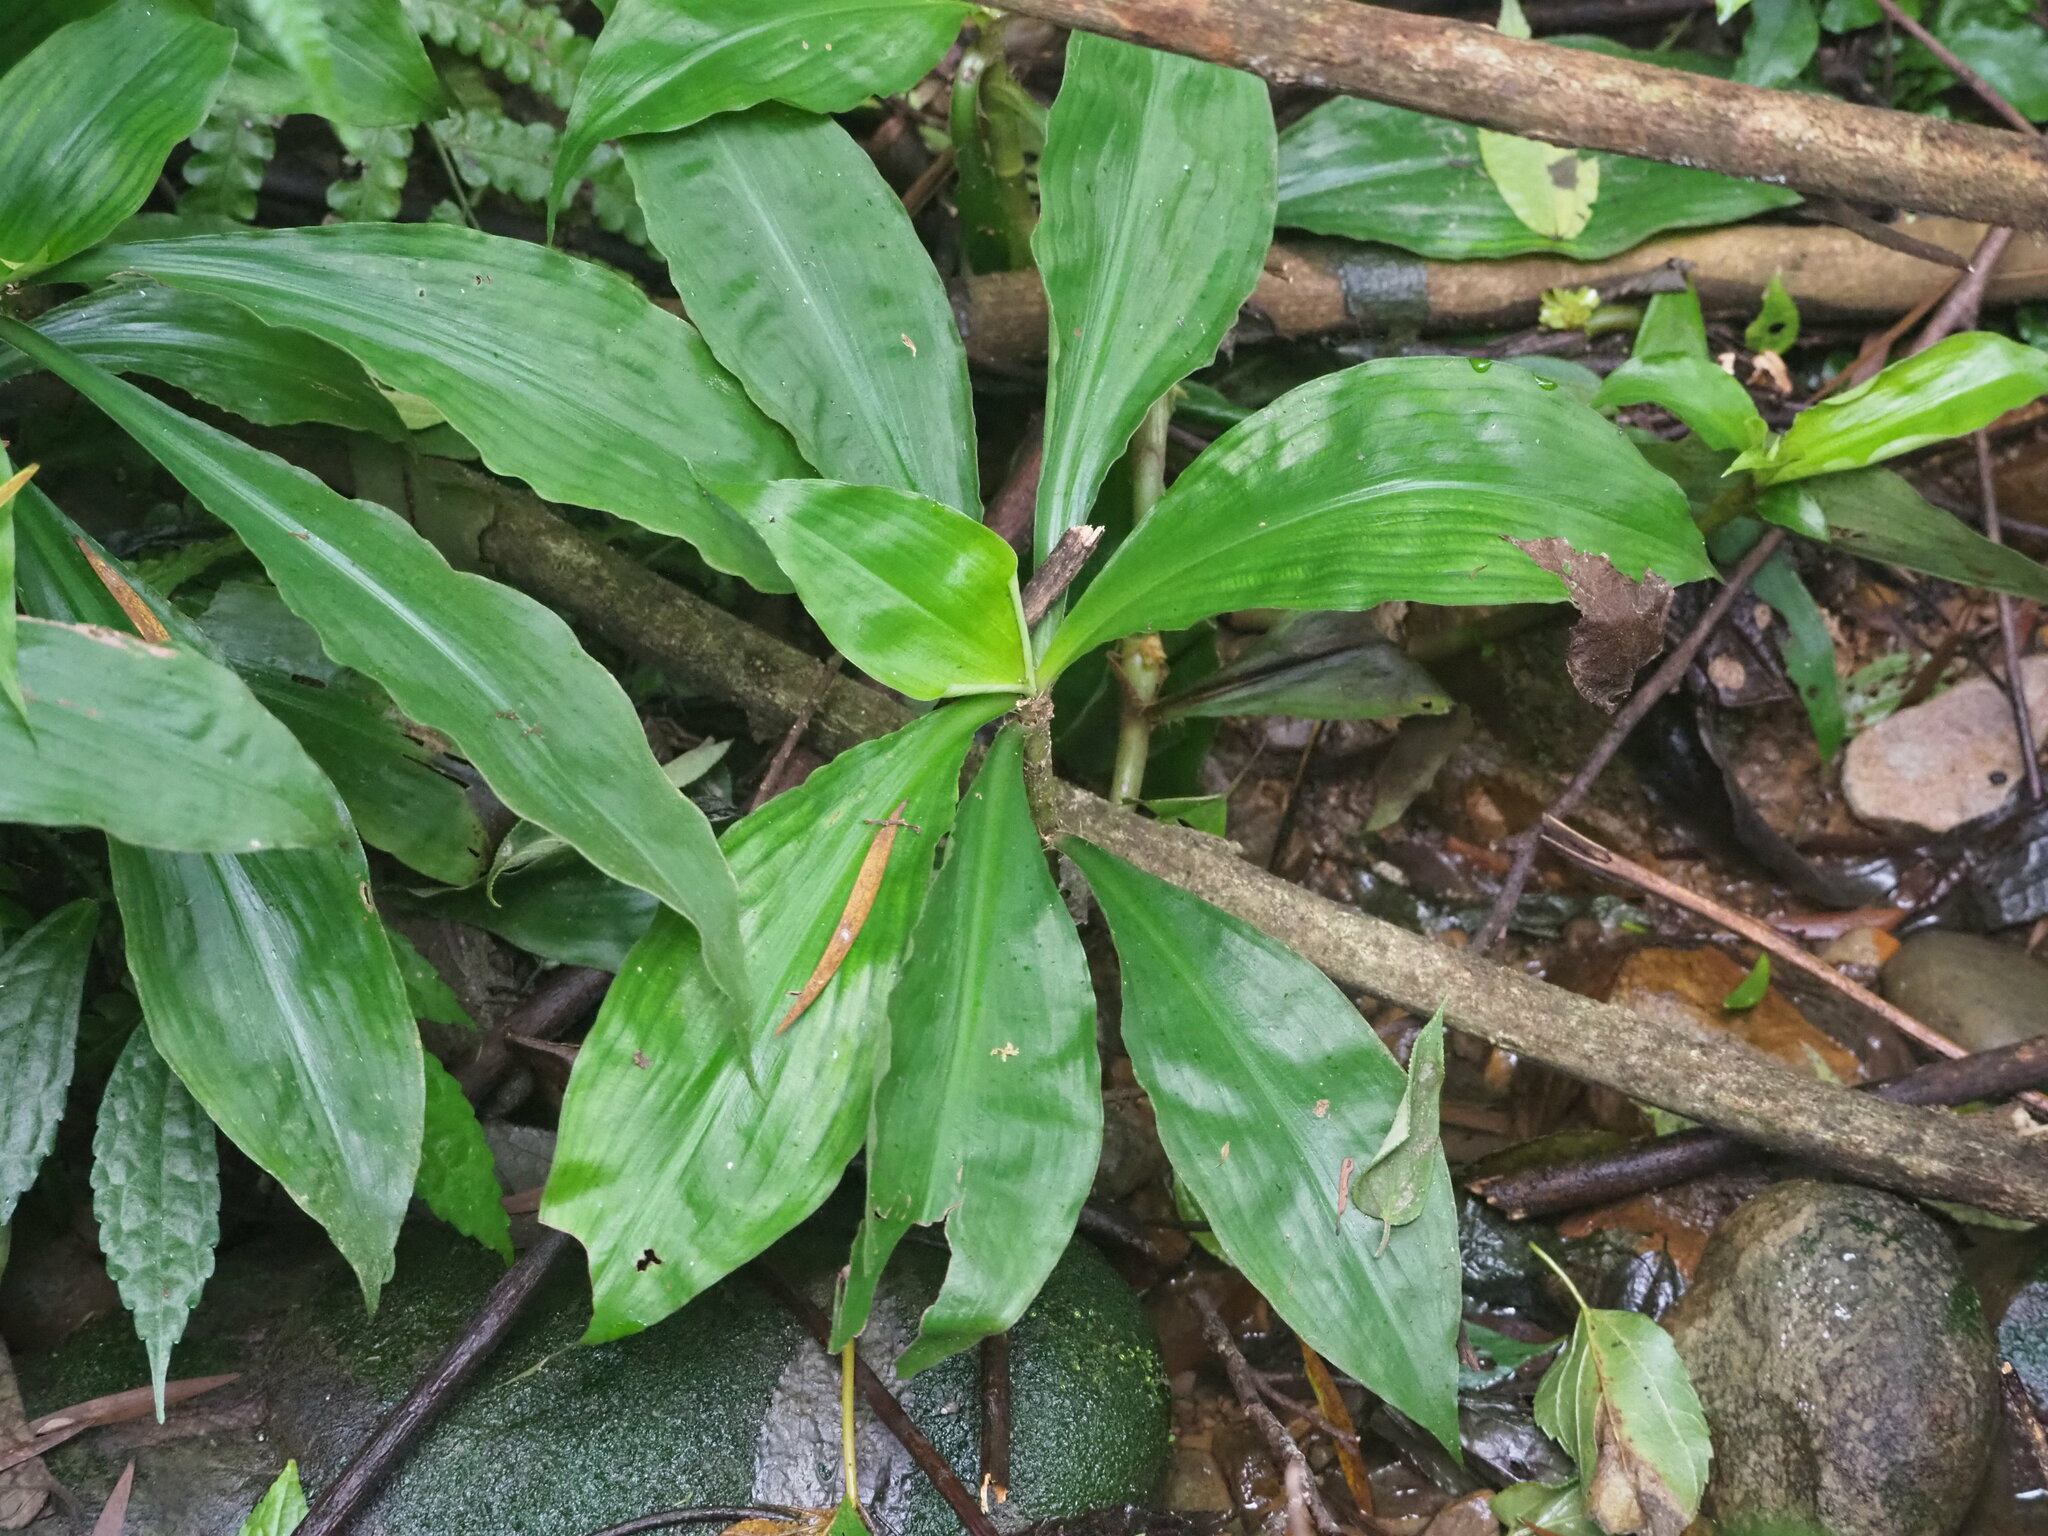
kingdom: Plantae
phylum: Tracheophyta
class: Liliopsida
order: Commelinales
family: Commelinaceae
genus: Amischotolype
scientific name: Amischotolype glabrata
